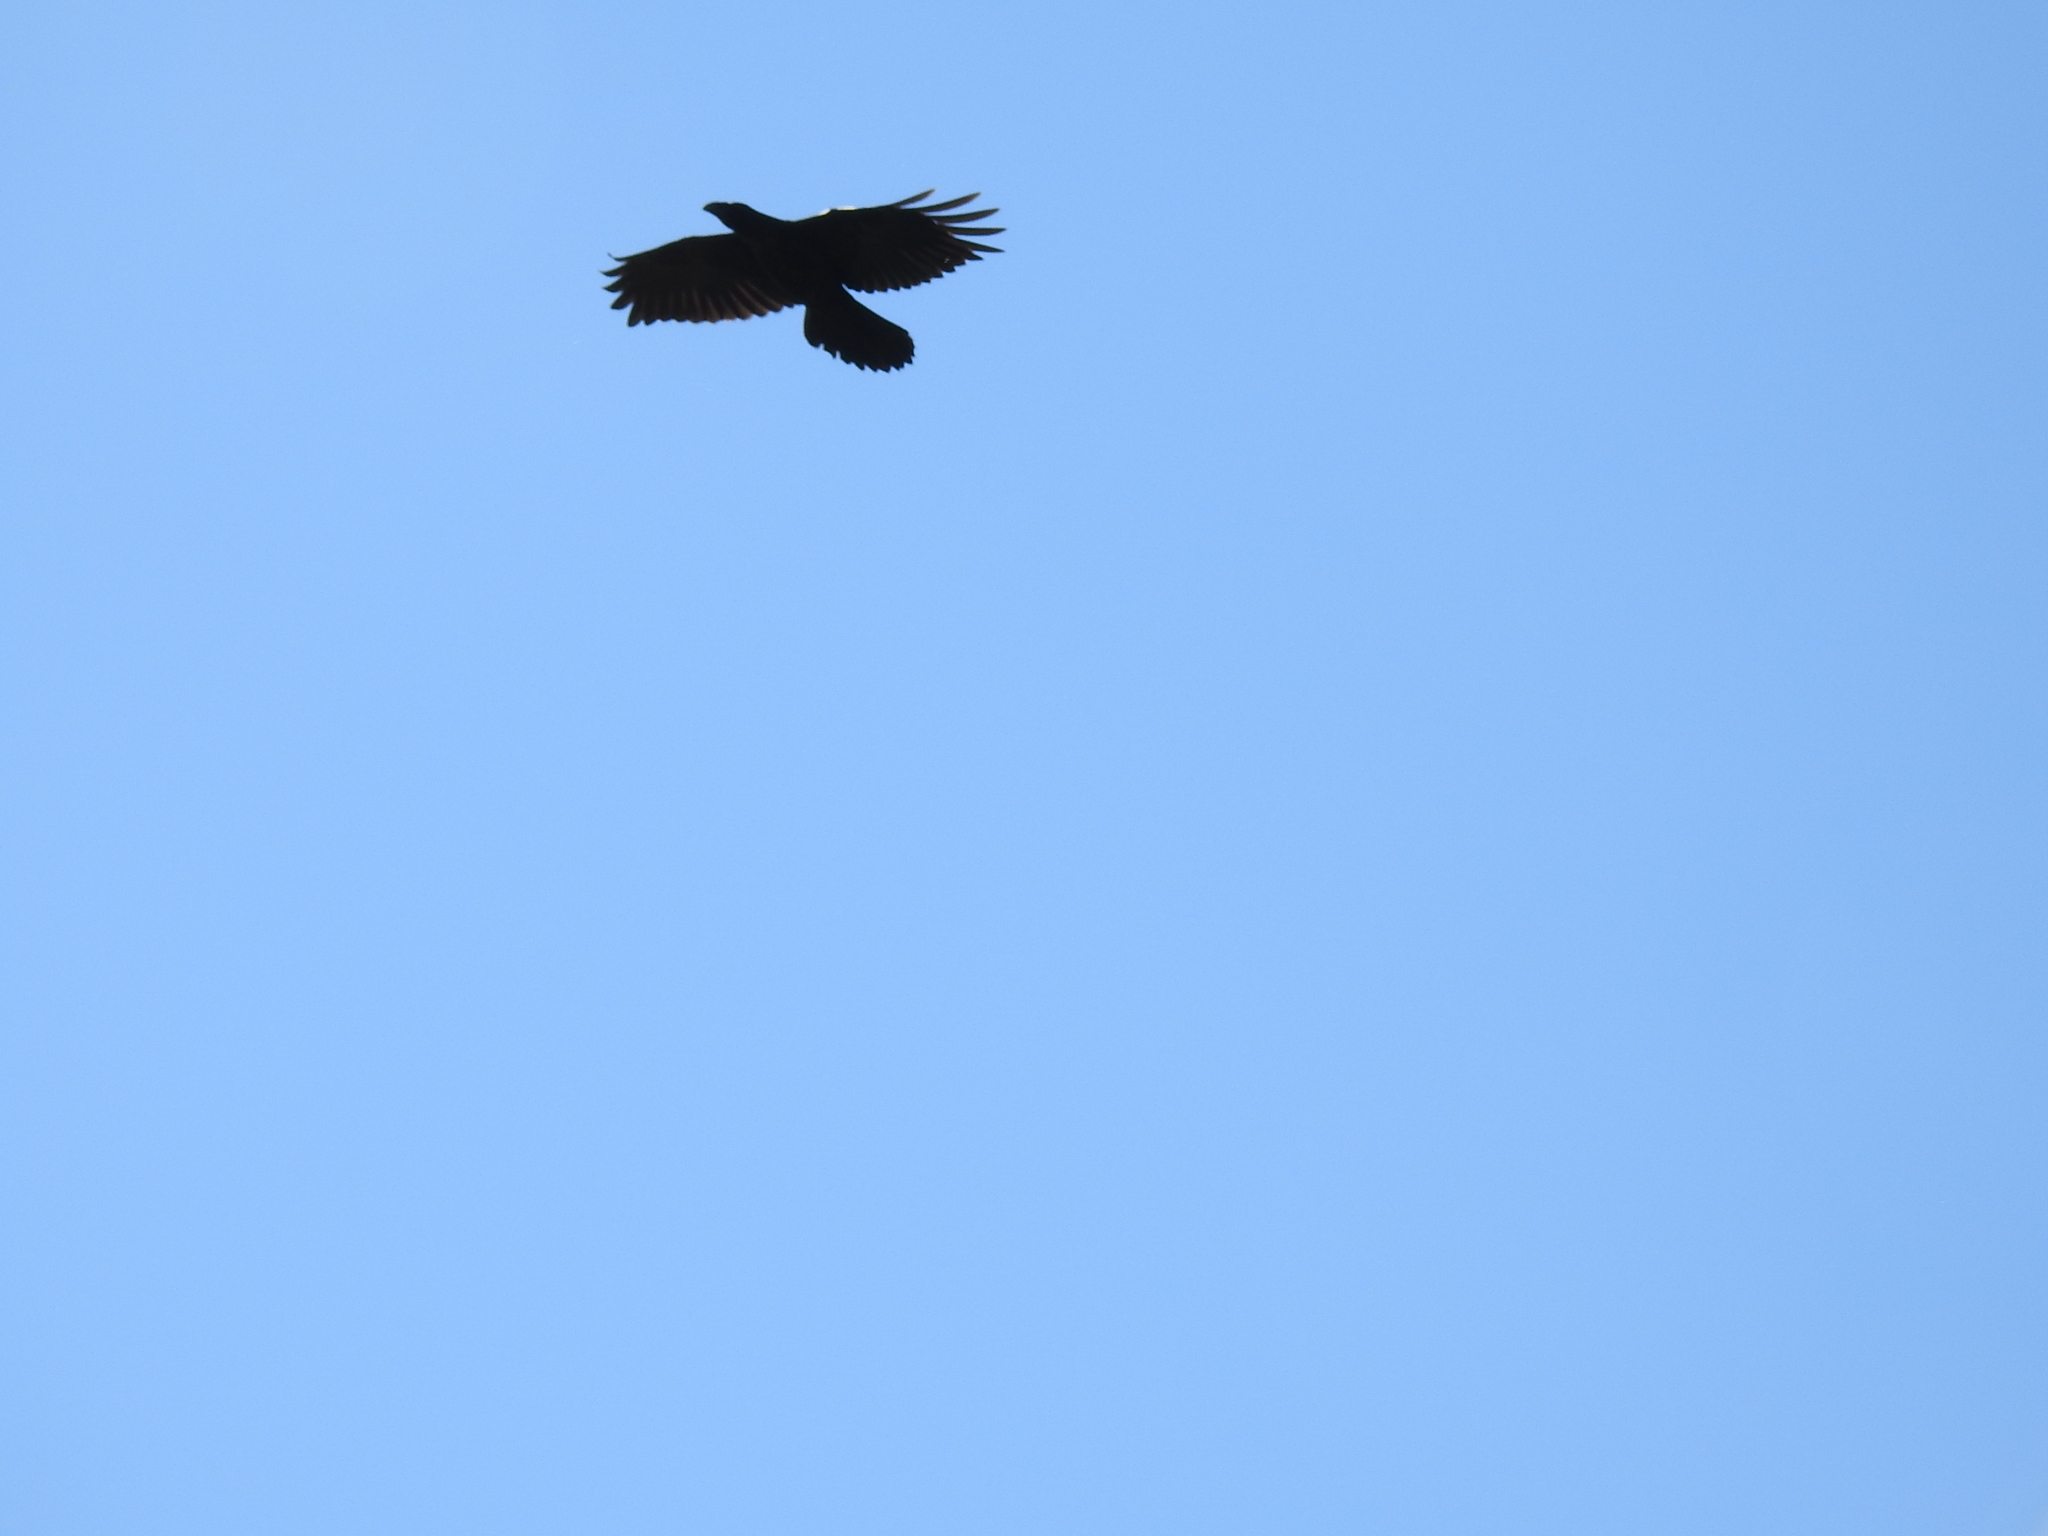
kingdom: Animalia
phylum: Chordata
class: Aves
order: Passeriformes
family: Corvidae
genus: Corvus
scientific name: Corvus corax
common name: Common raven
